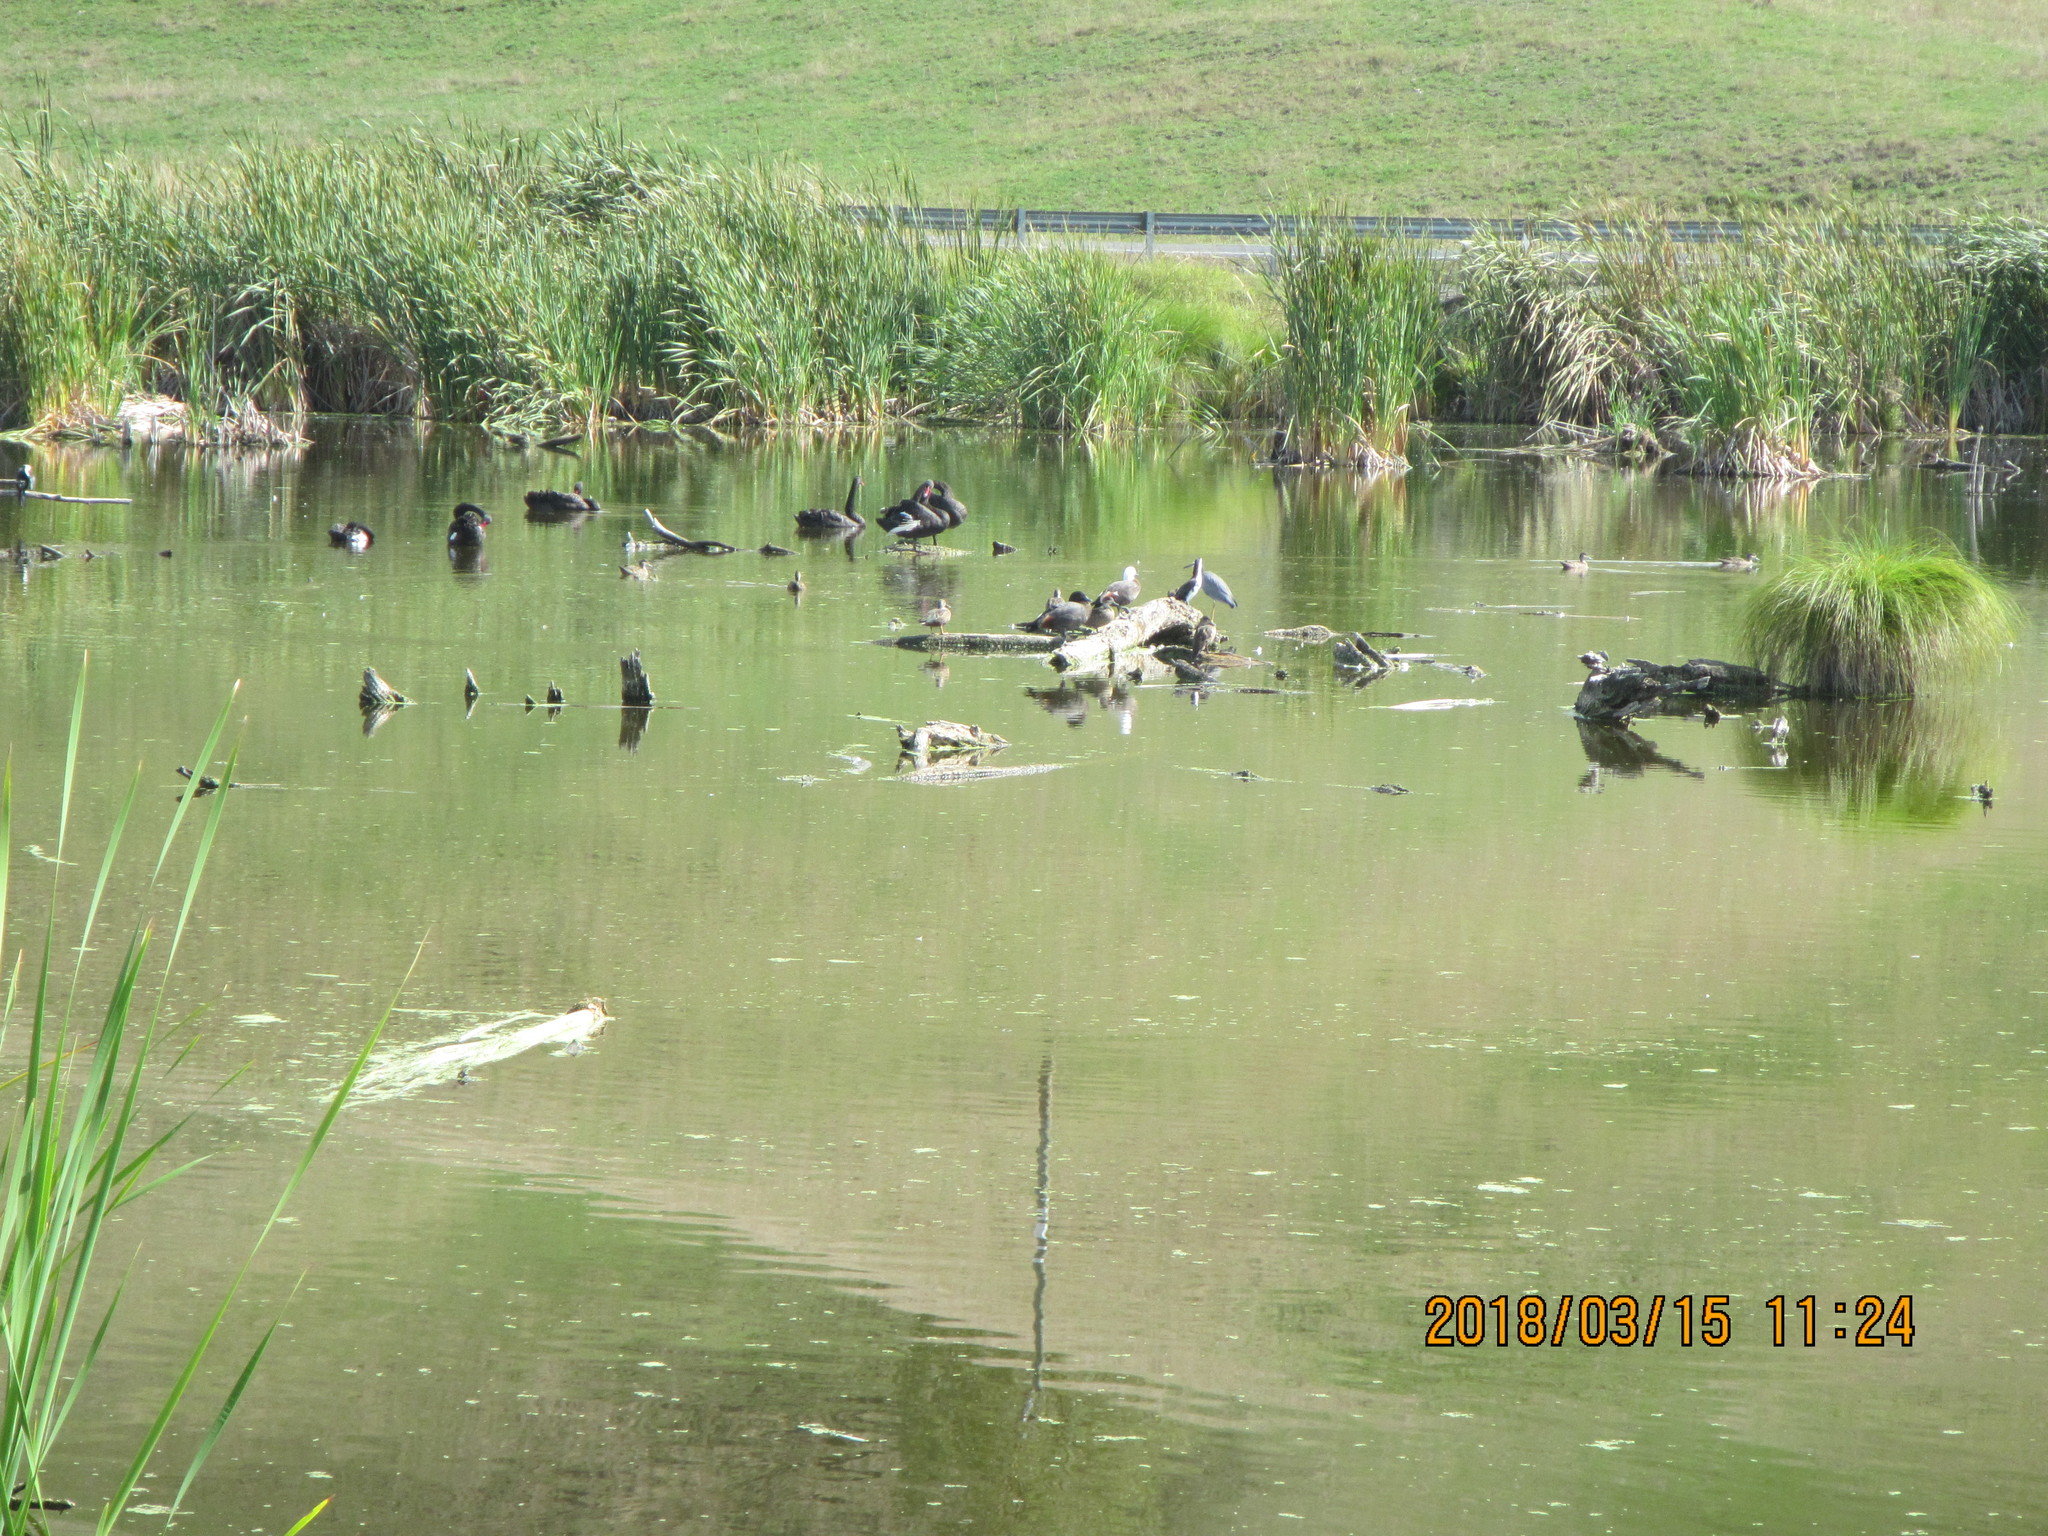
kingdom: Animalia
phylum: Chordata
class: Aves
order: Anseriformes
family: Anatidae
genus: Cygnus
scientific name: Cygnus atratus
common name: Black swan
